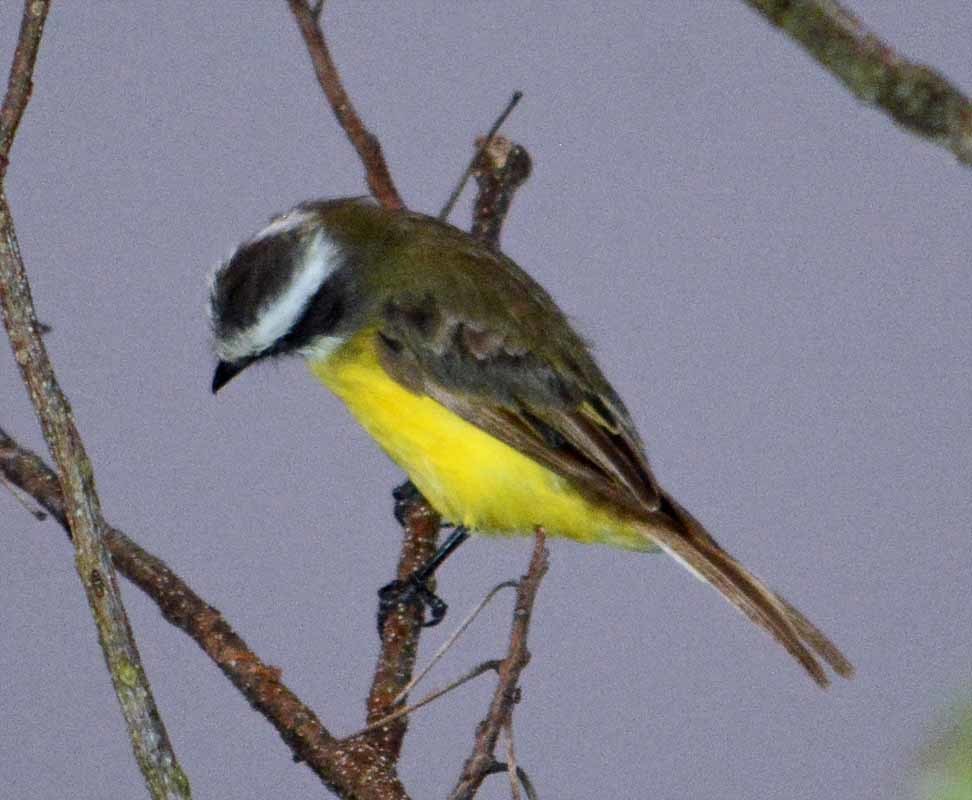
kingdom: Animalia
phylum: Chordata
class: Aves
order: Passeriformes
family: Tyrannidae
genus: Myiozetetes
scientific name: Myiozetetes similis
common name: Social flycatcher
